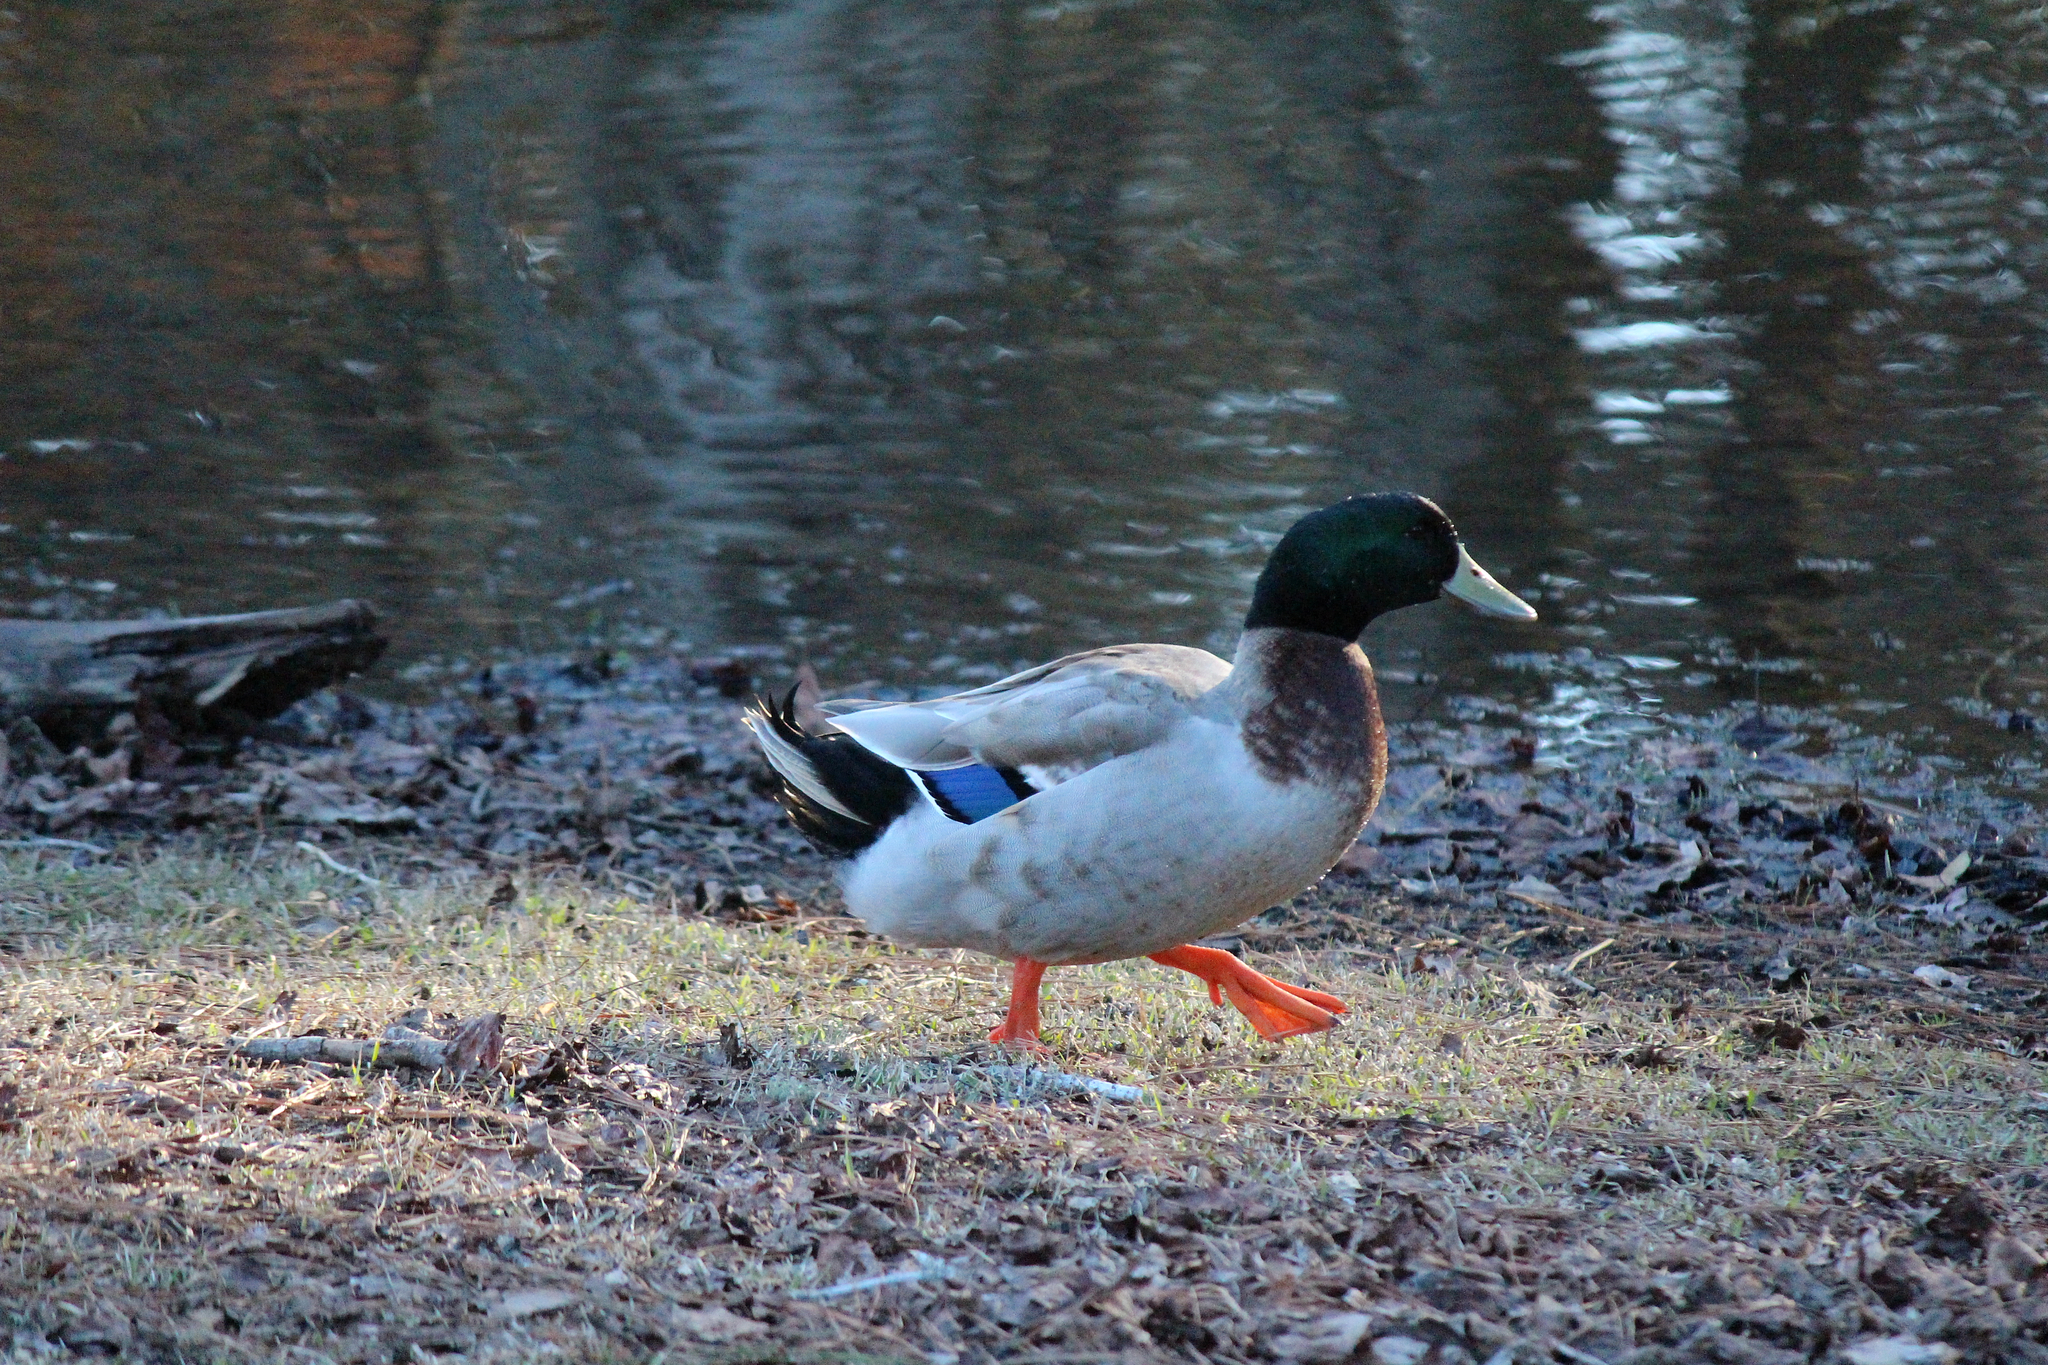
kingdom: Animalia
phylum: Chordata
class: Aves
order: Anseriformes
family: Anatidae
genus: Anas
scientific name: Anas platyrhynchos
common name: Mallard
